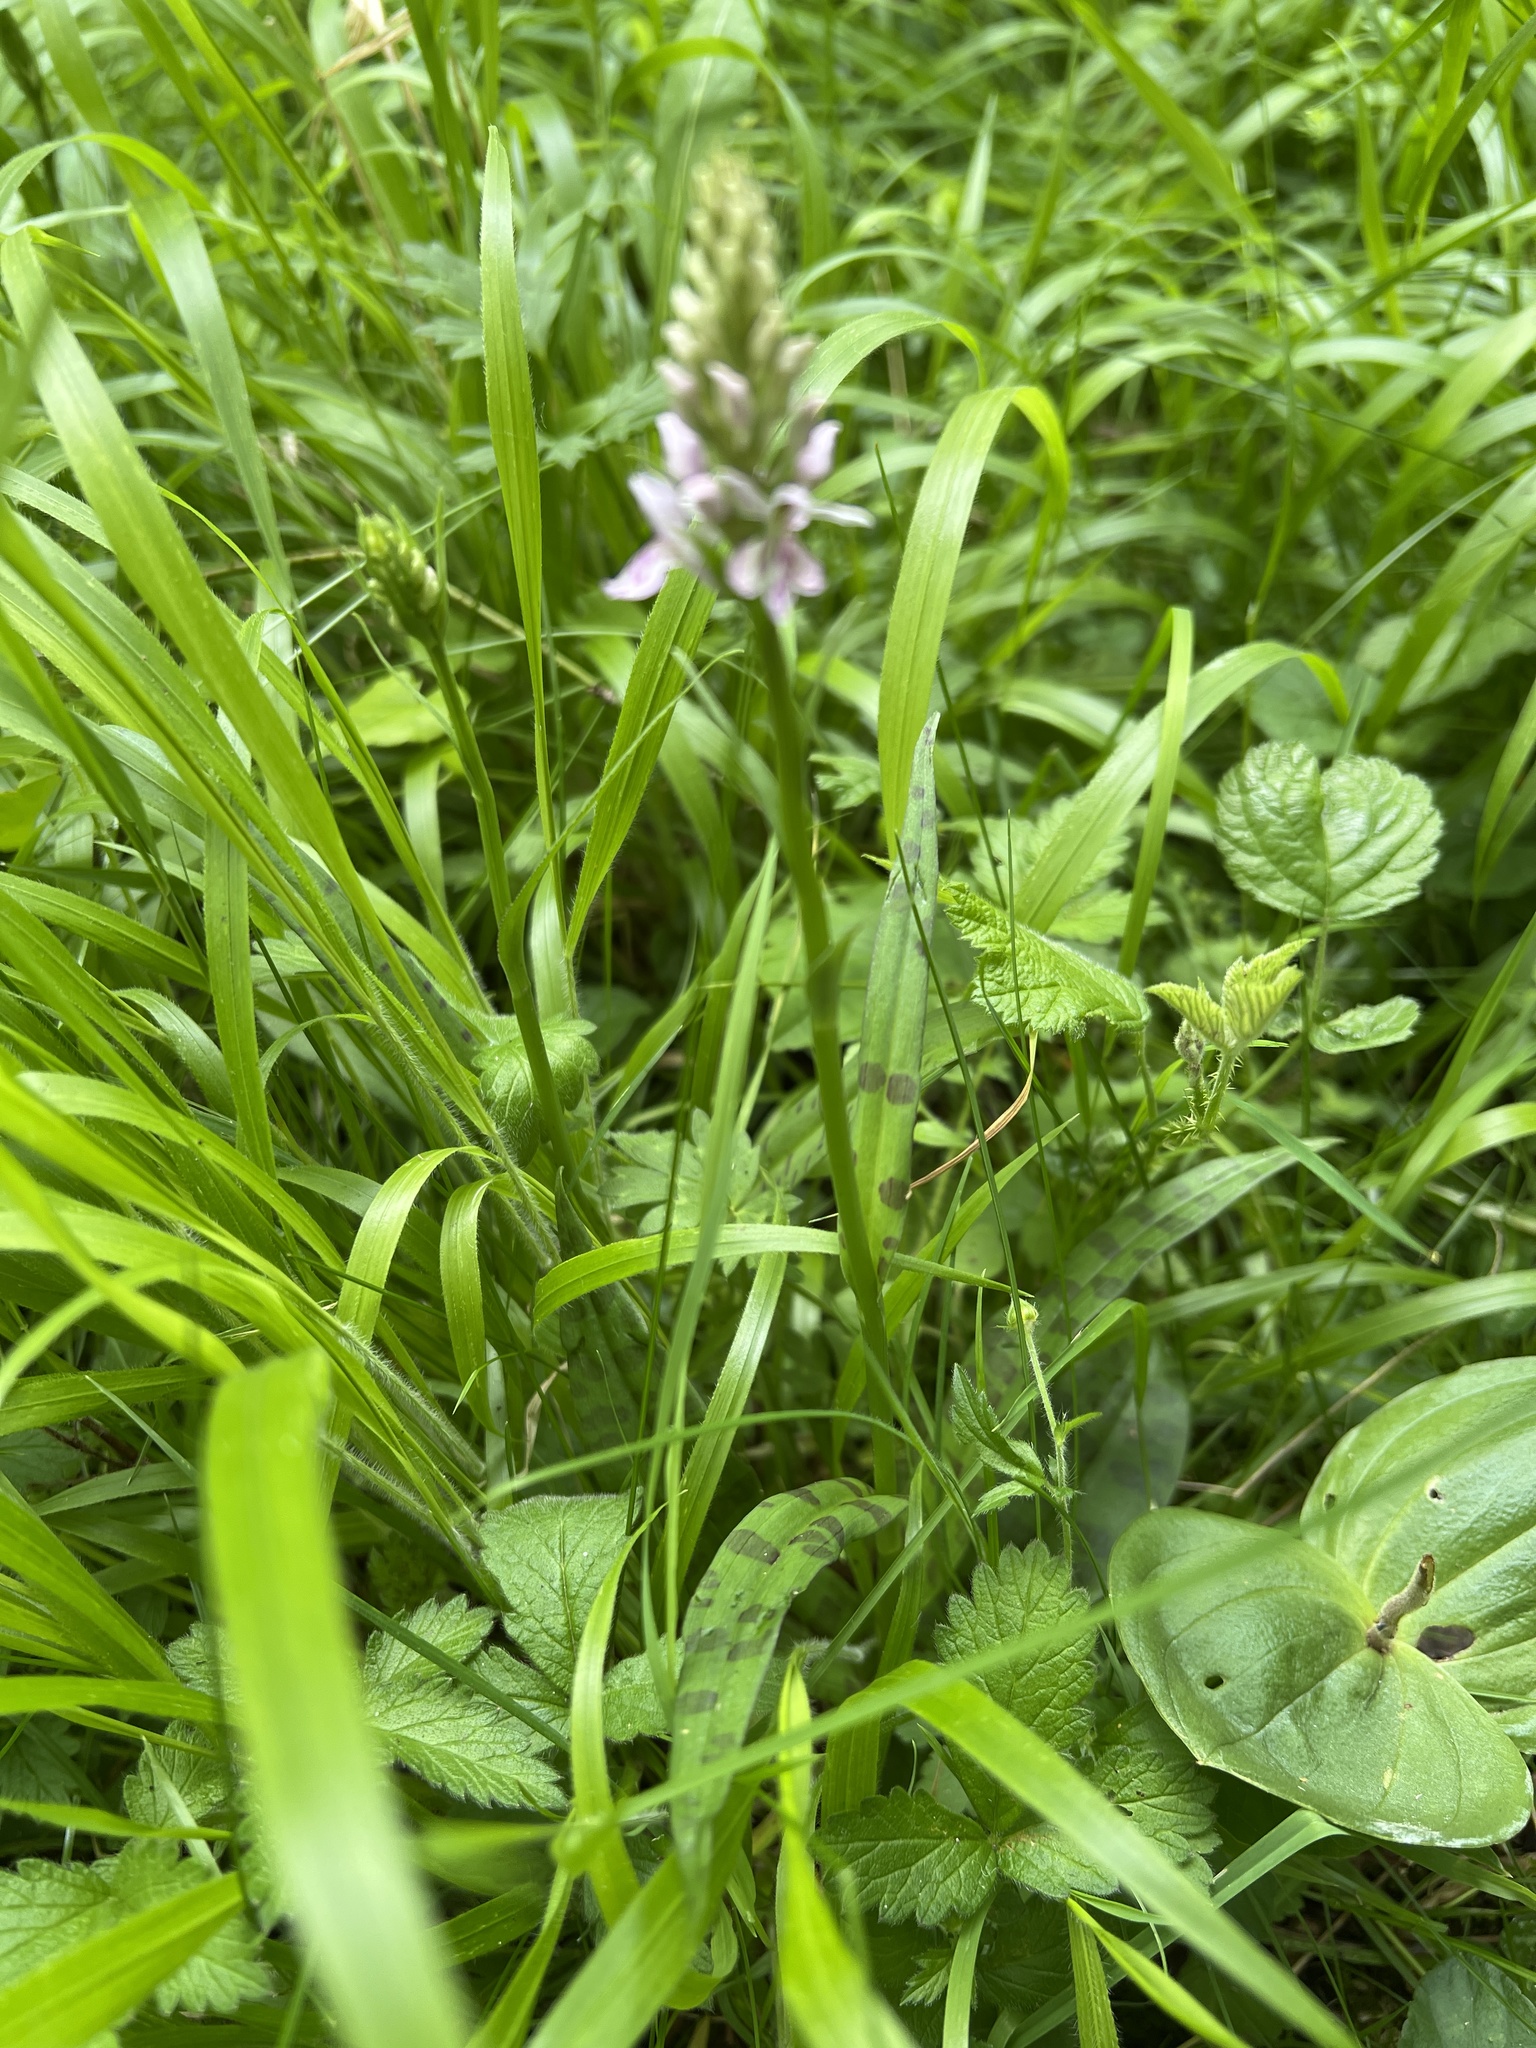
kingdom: Plantae
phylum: Tracheophyta
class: Liliopsida
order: Asparagales
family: Orchidaceae
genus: Dactylorhiza
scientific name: Dactylorhiza maculata
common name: Heath spotted-orchid
